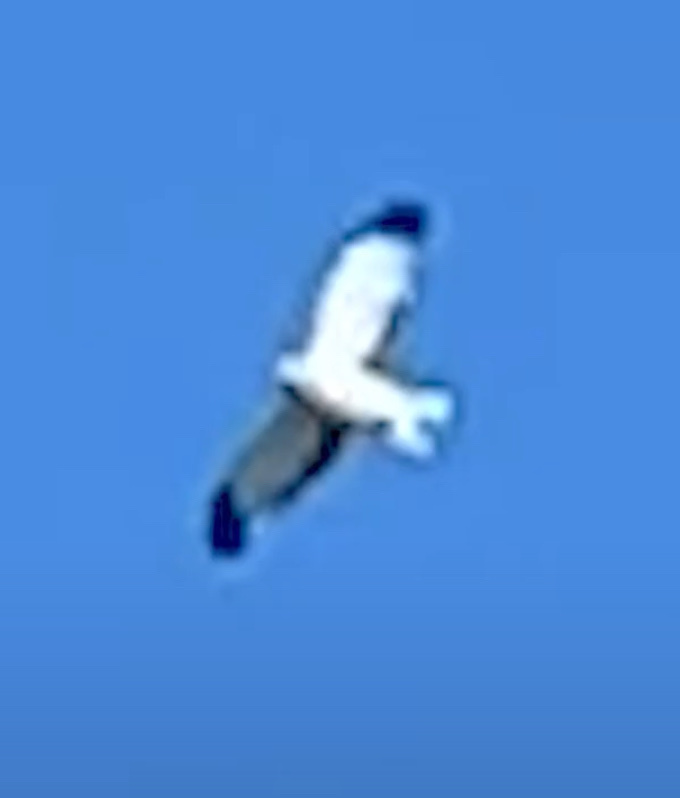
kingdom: Animalia
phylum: Chordata
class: Aves
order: Accipitriformes
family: Accipitridae
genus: Circus
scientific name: Circus cyaneus
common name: Hen harrier
